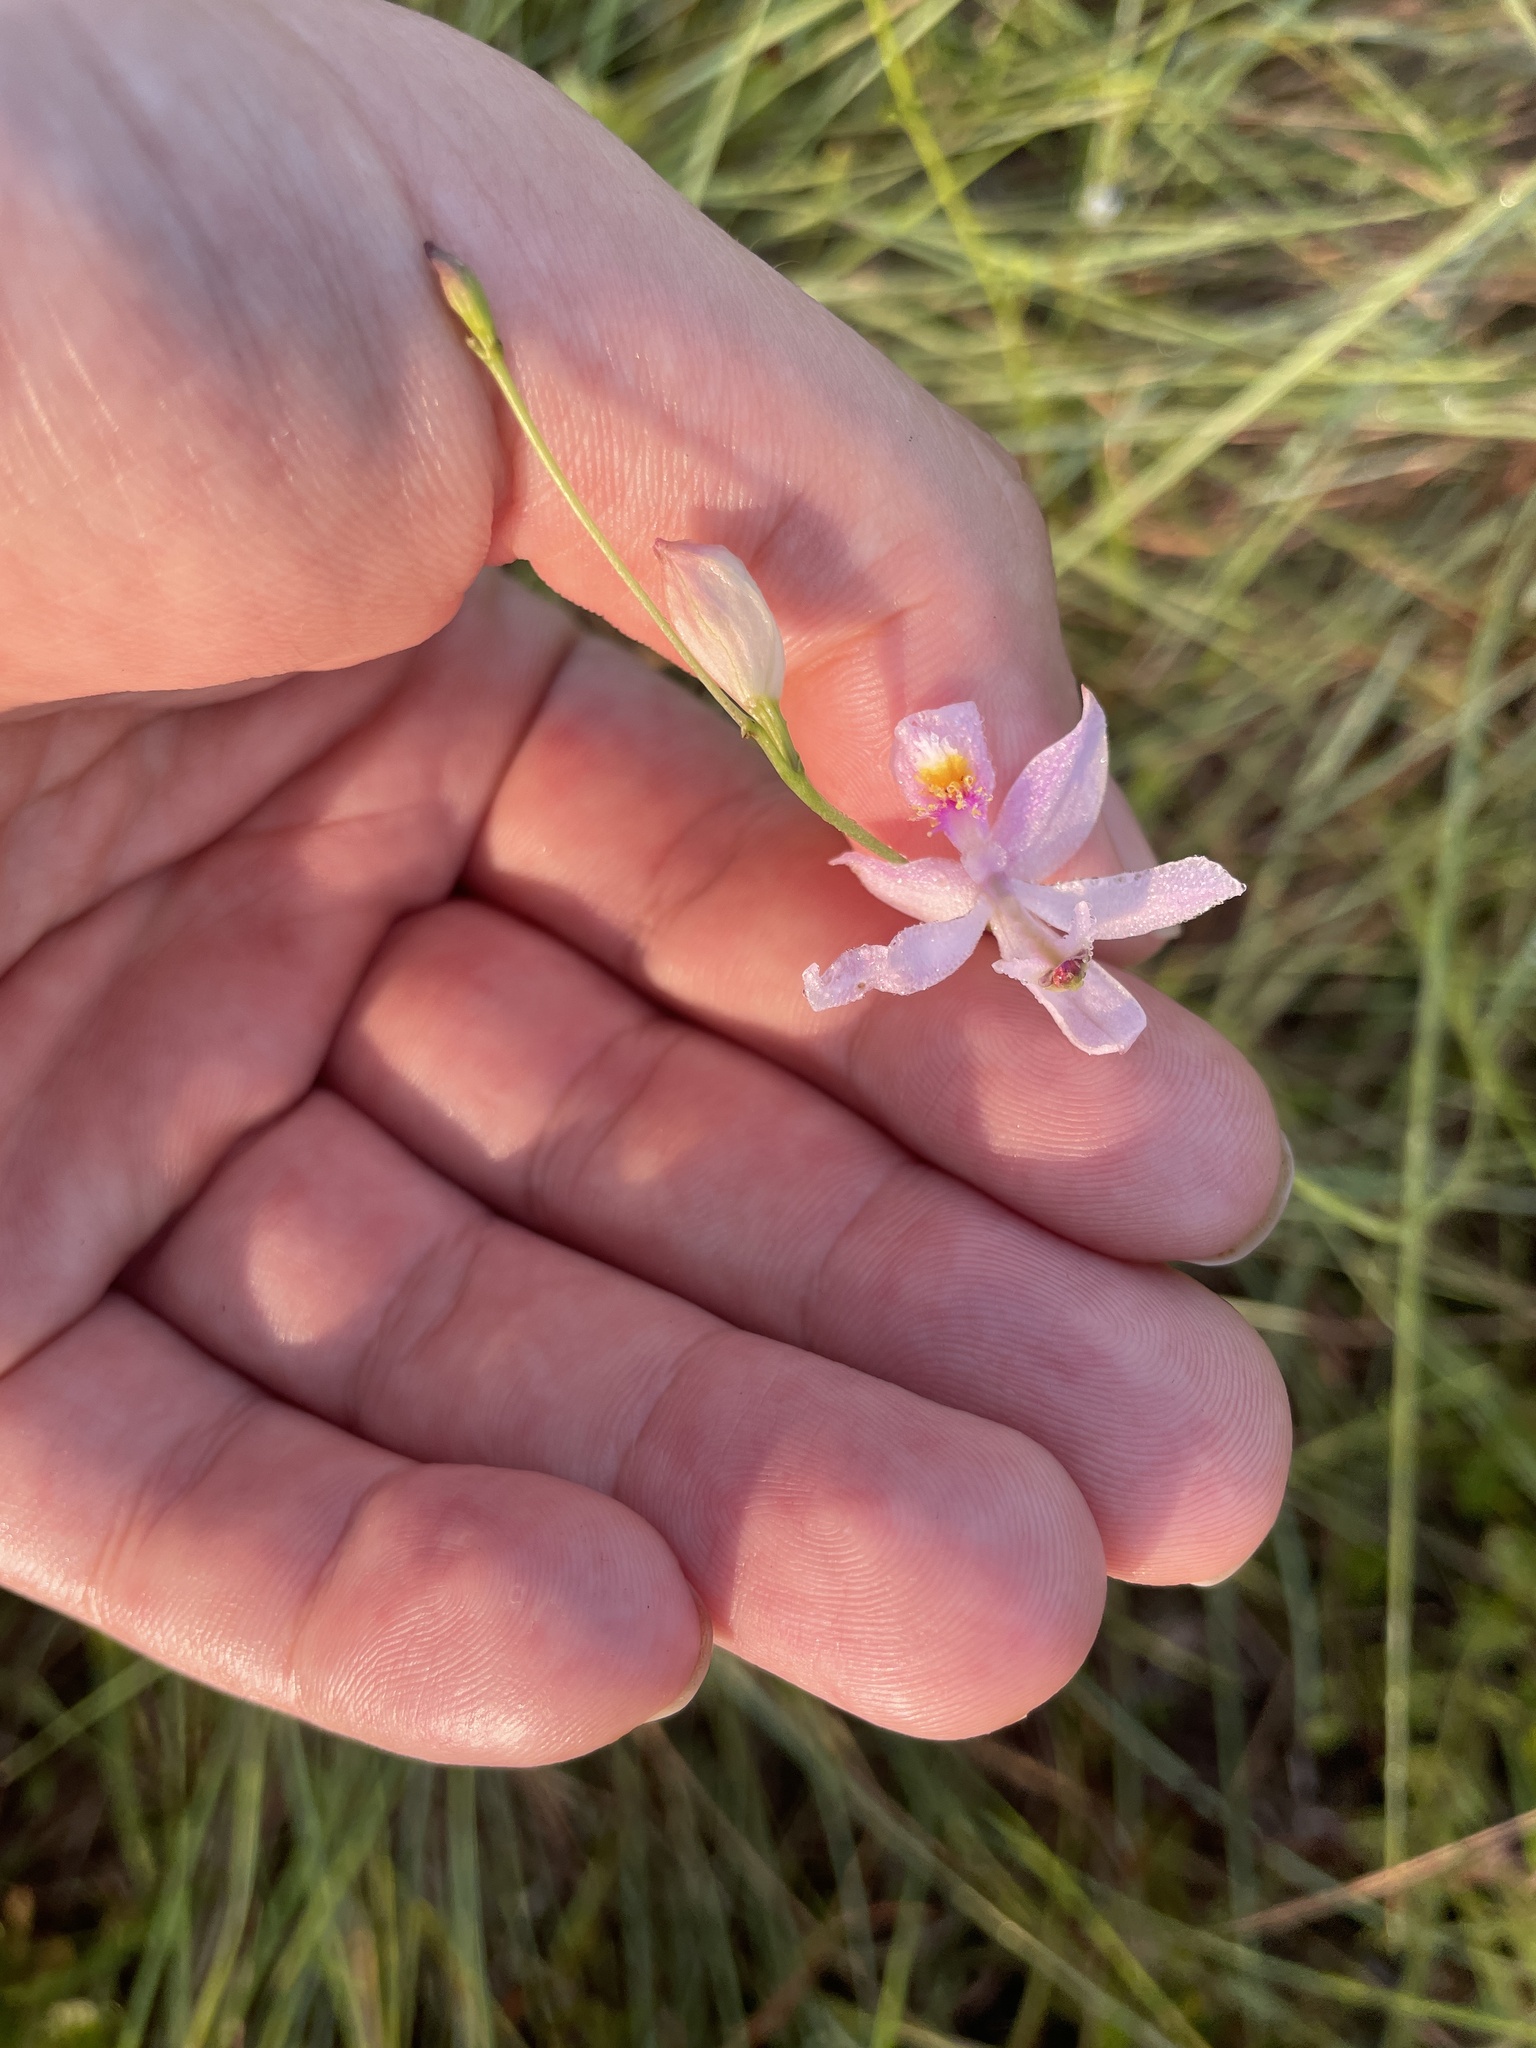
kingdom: Plantae
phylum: Tracheophyta
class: Liliopsida
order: Asparagales
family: Orchidaceae
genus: Calopogon
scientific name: Calopogon pallidus
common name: Pale grasspink
